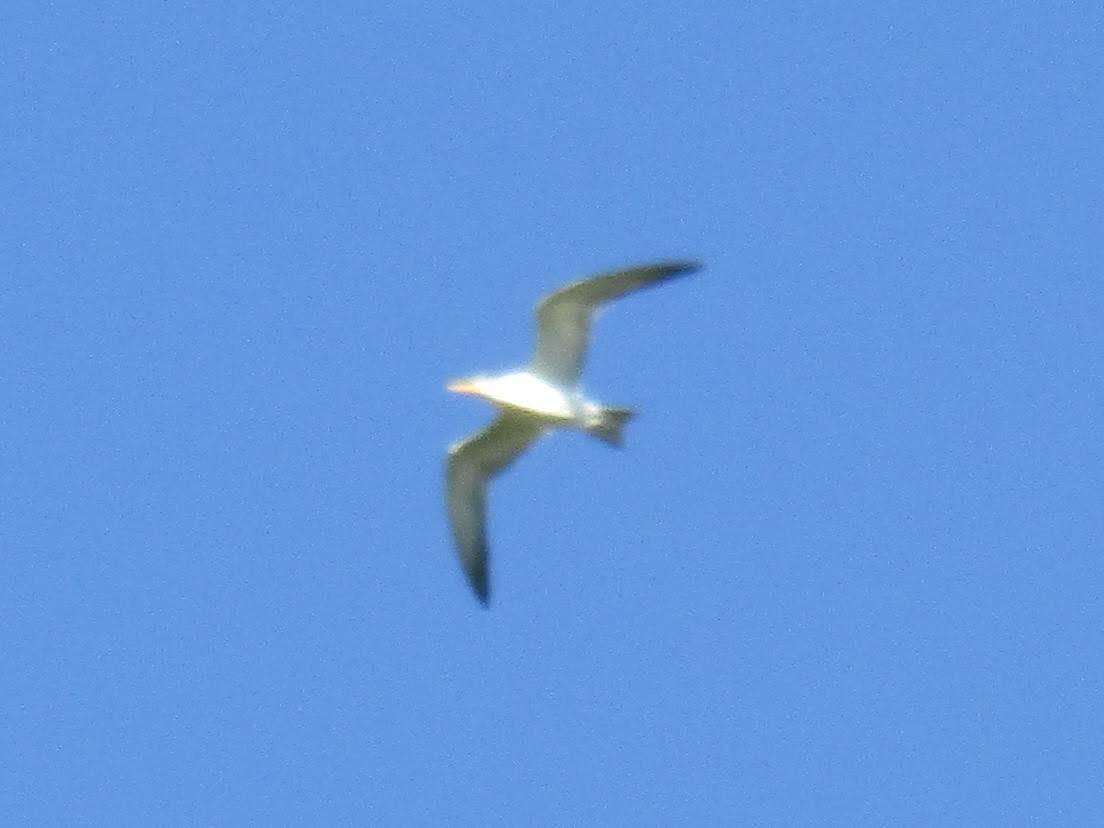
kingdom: Animalia
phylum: Chordata
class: Aves
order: Charadriiformes
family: Laridae
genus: Phaetusa
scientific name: Phaetusa simplex
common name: Large-billed tern
